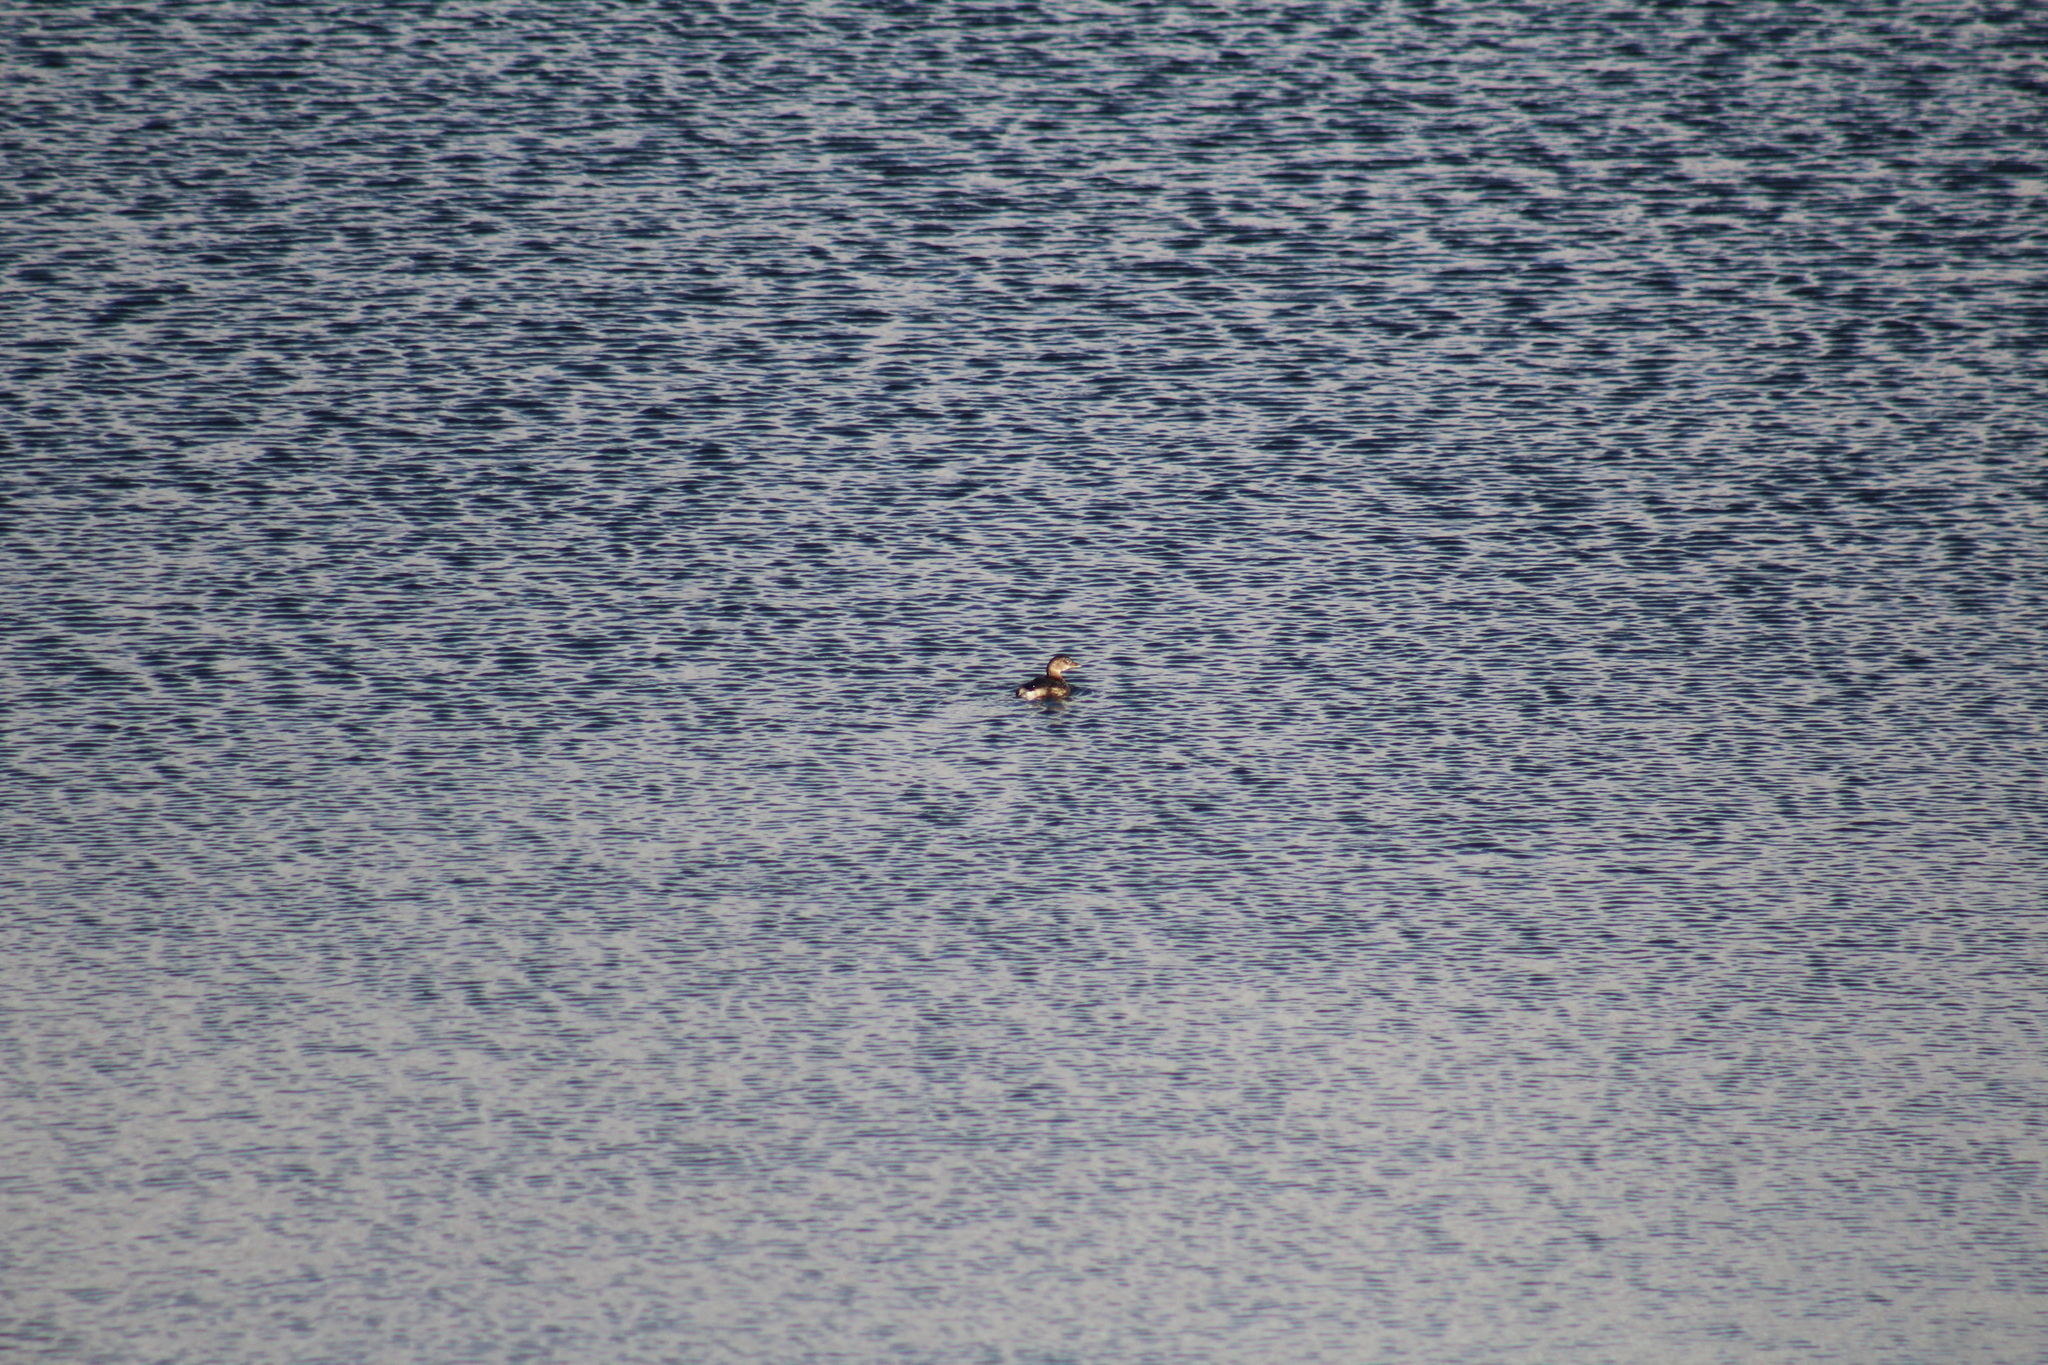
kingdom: Animalia
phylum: Chordata
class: Aves
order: Podicipediformes
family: Podicipedidae
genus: Podilymbus
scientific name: Podilymbus podiceps
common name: Pied-billed grebe
